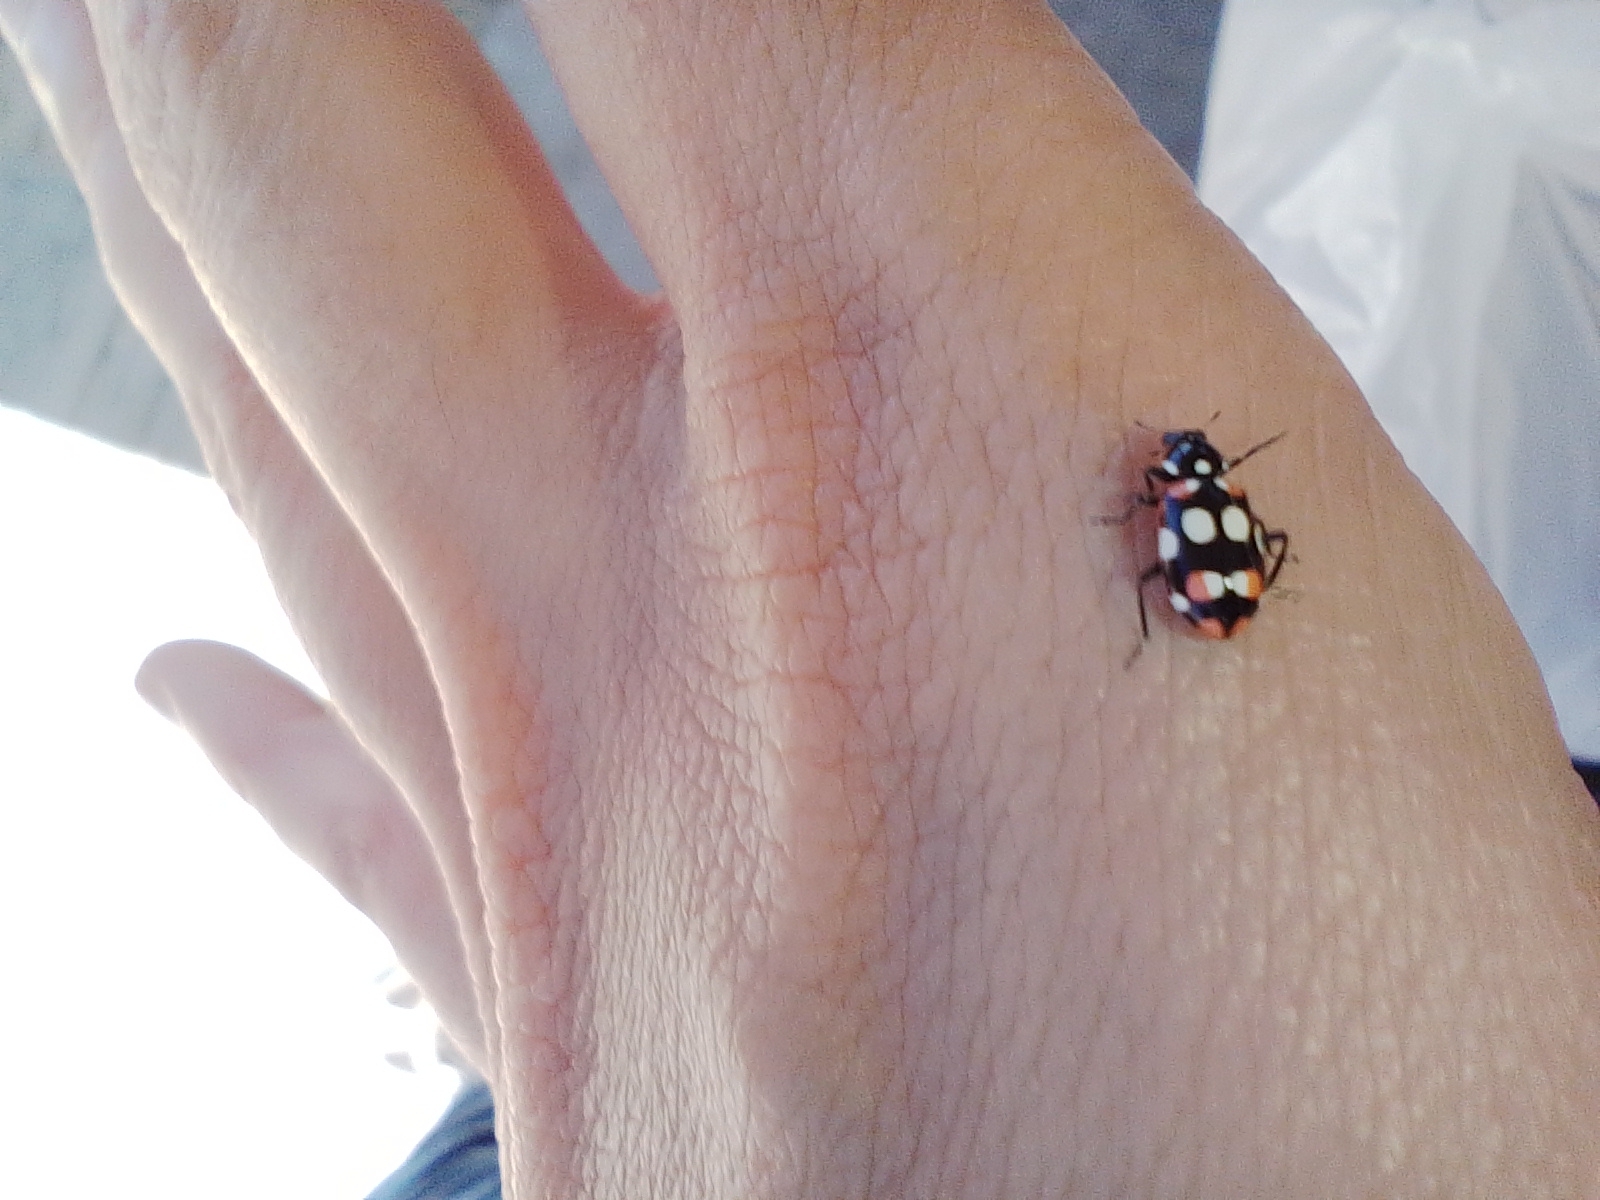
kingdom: Animalia
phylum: Arthropoda
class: Insecta
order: Coleoptera
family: Coccinellidae
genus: Eriopis
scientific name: Eriopis connexa
